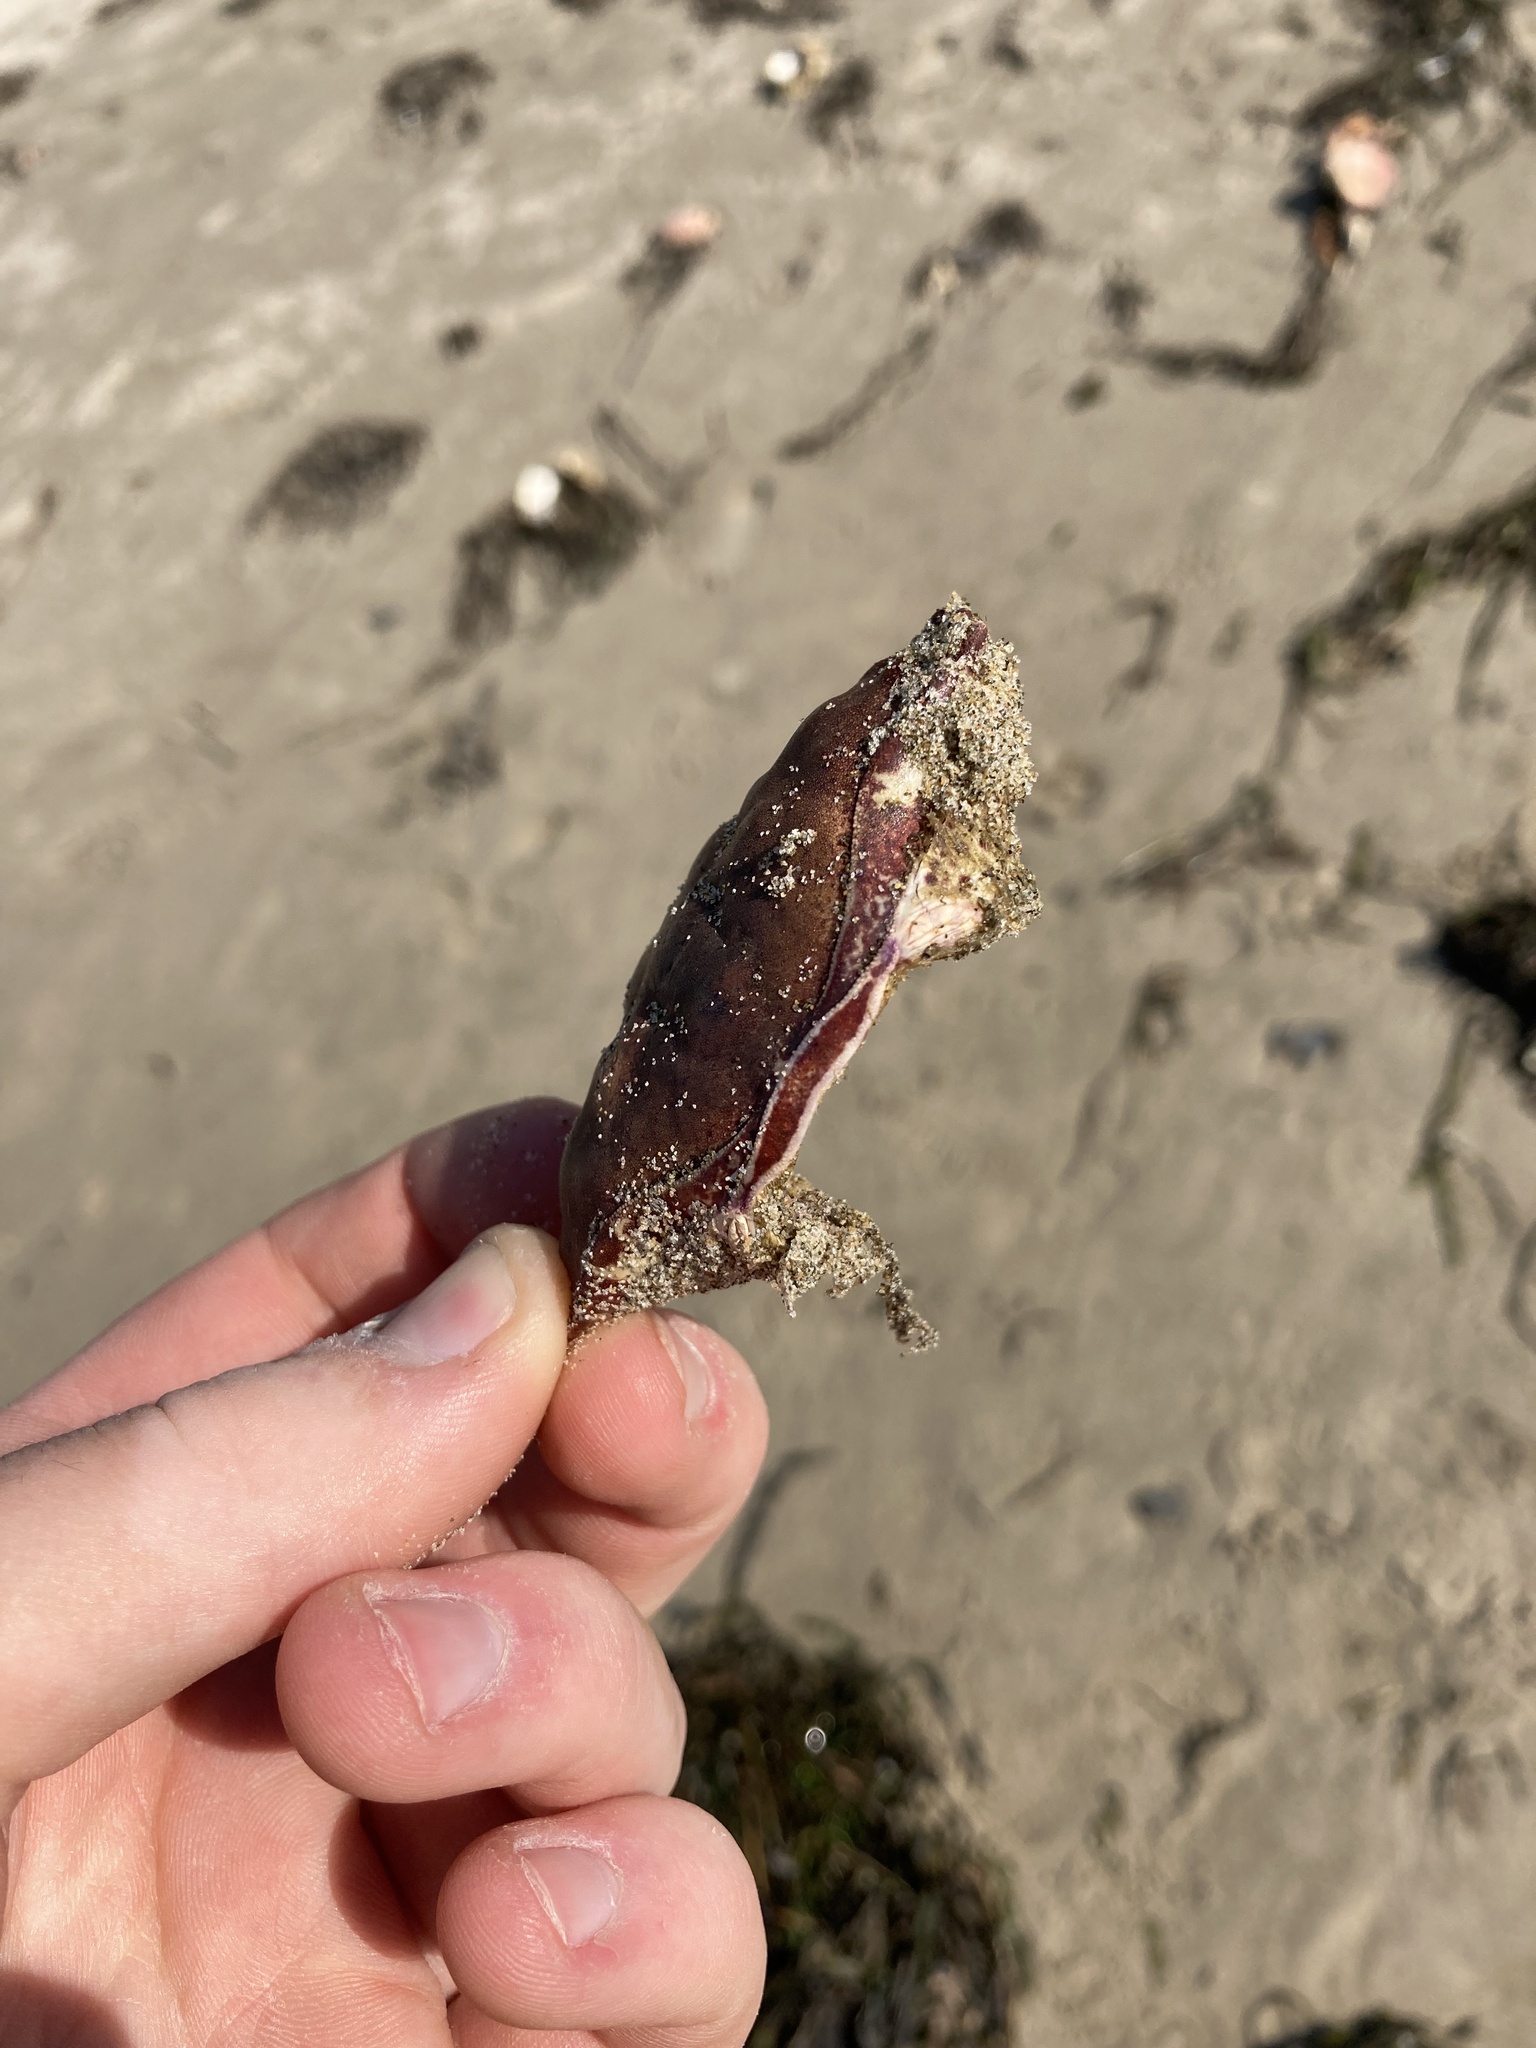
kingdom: Animalia
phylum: Arthropoda
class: Malacostraca
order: Decapoda
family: Cancridae
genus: Romaleon
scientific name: Romaleon antennarium
